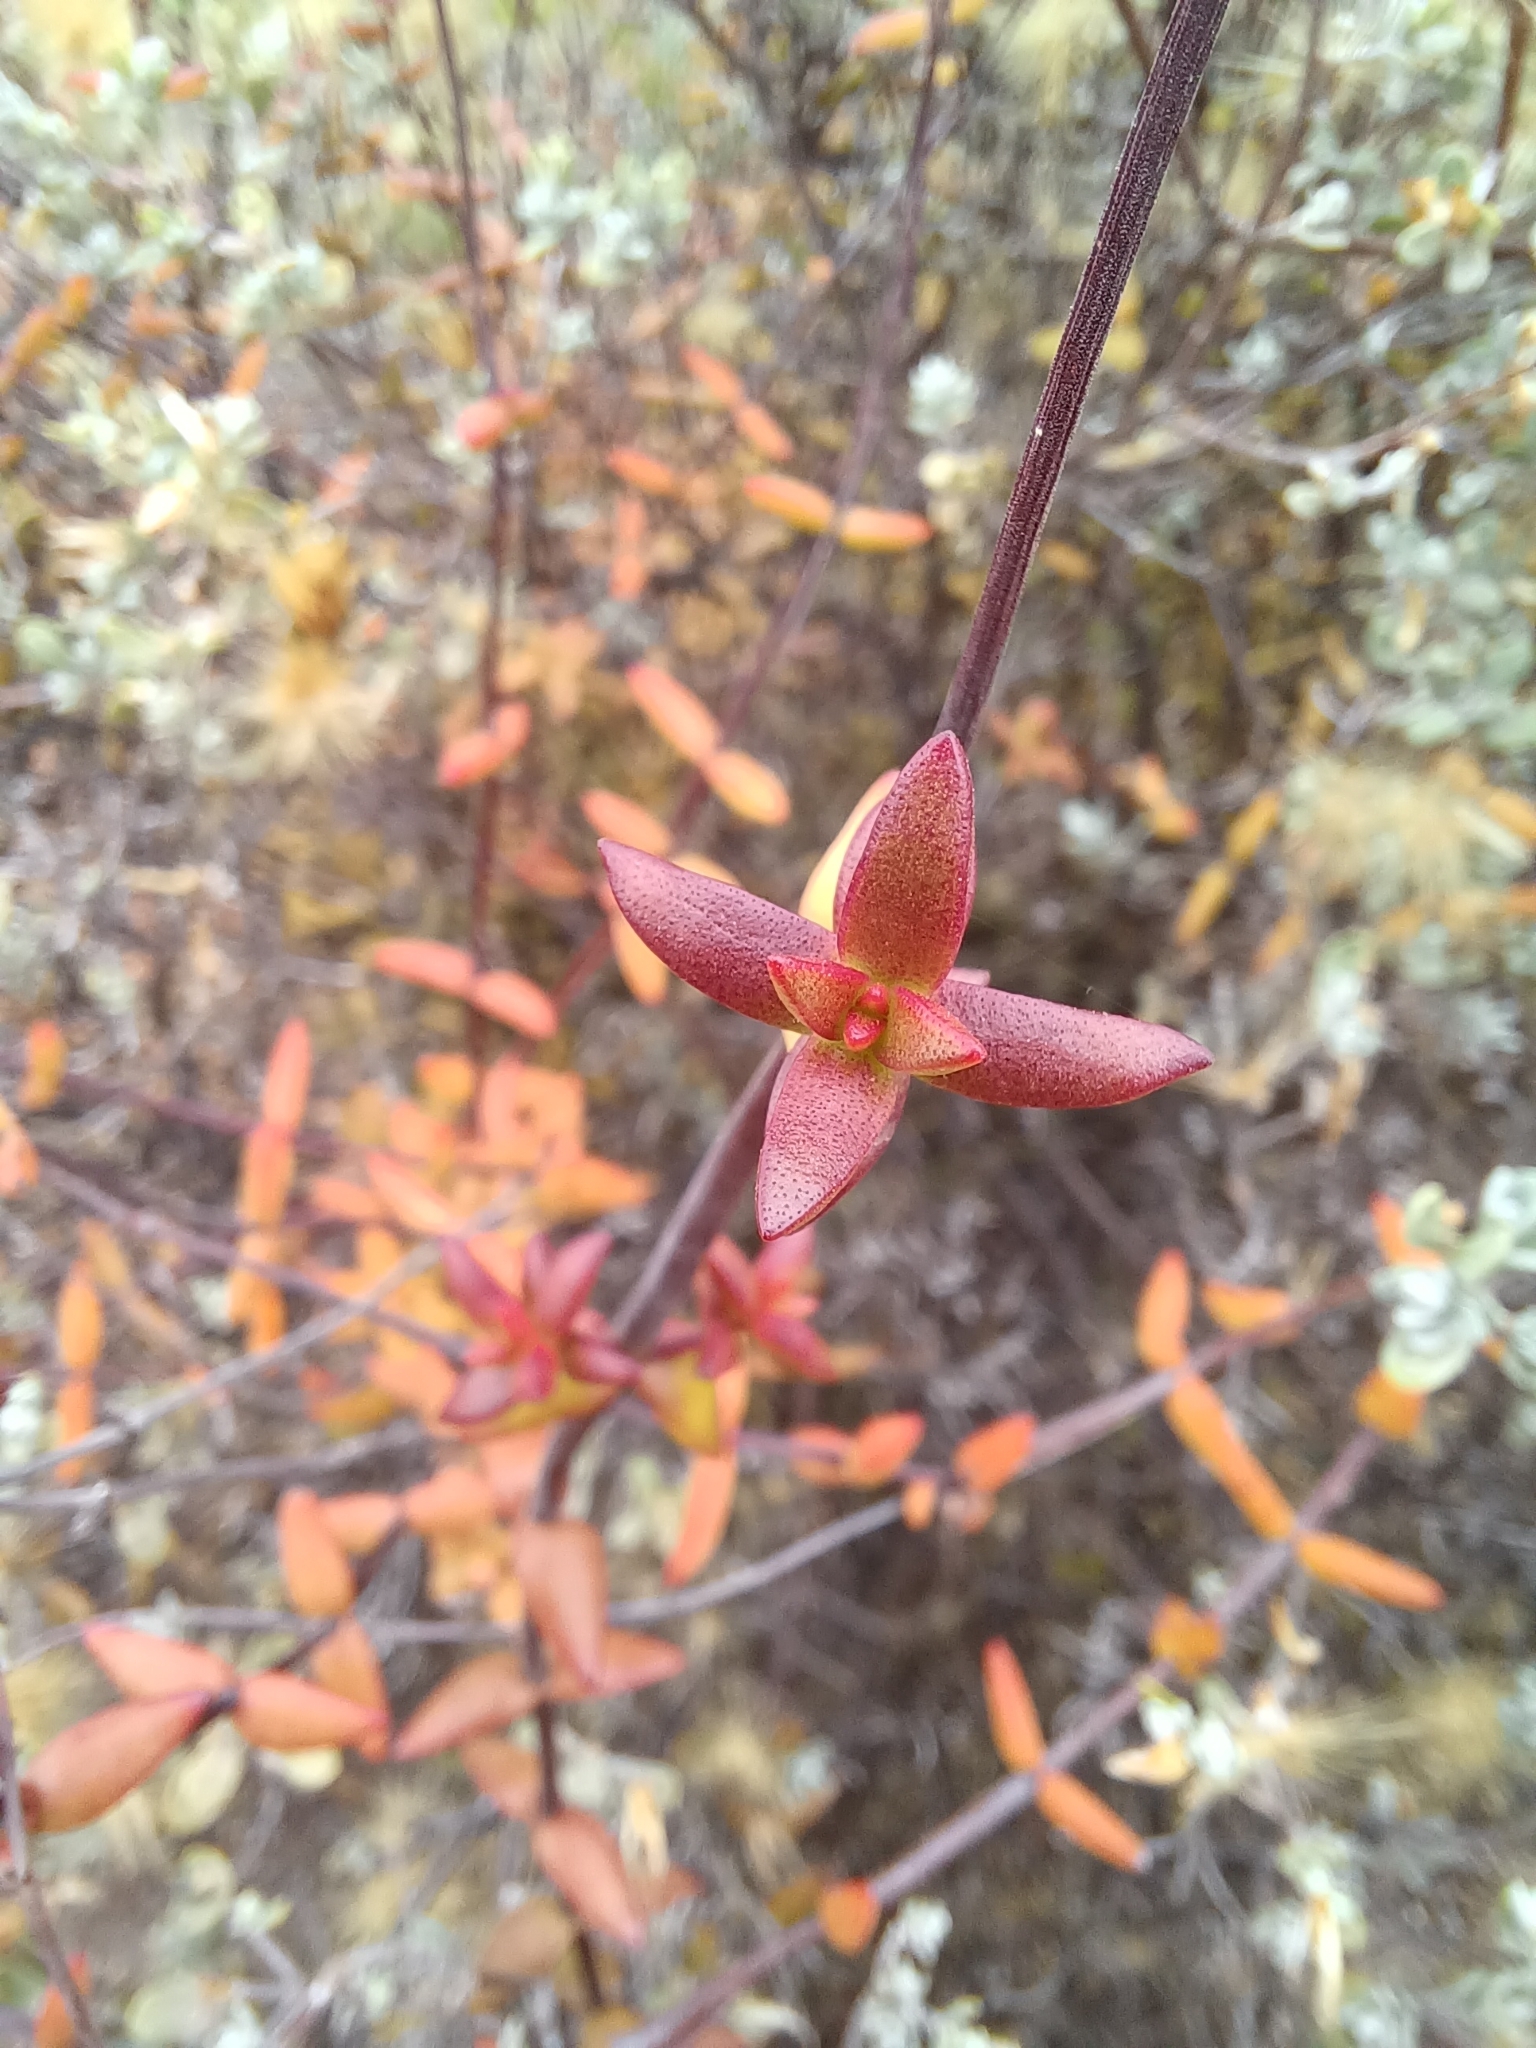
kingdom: Plantae
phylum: Tracheophyta
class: Magnoliopsida
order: Saxifragales
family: Crassulaceae
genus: Crassula
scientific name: Crassula subaphylla
